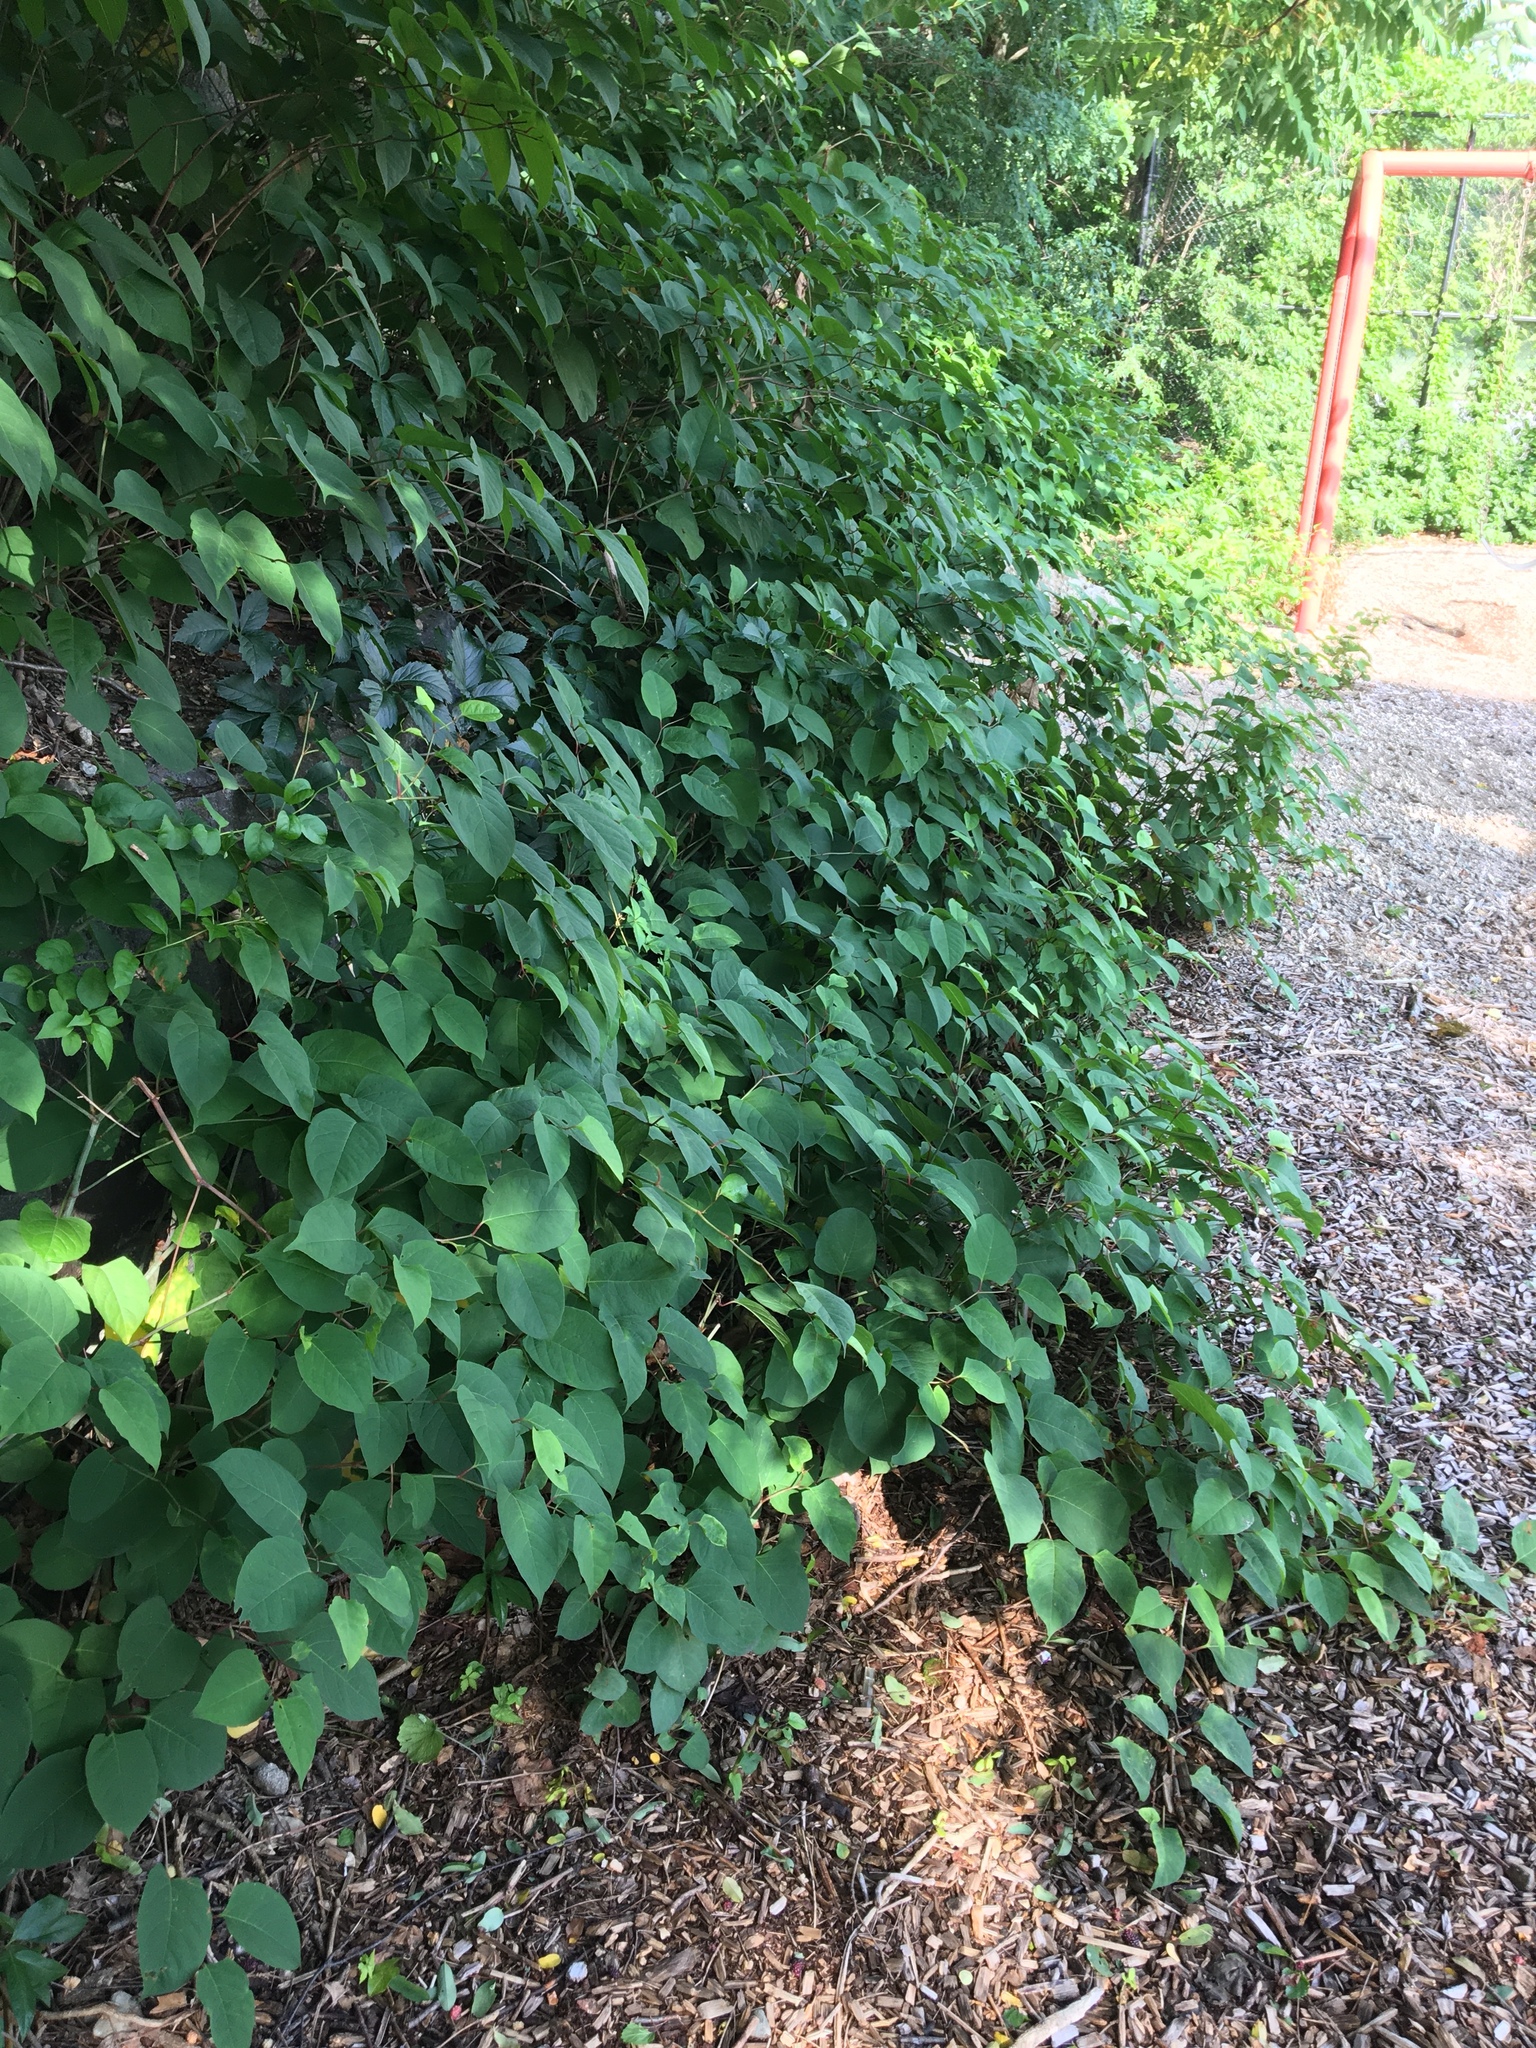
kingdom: Plantae
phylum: Tracheophyta
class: Magnoliopsida
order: Caryophyllales
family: Polygonaceae
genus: Reynoutria
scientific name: Reynoutria japonica
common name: Japanese knotweed
